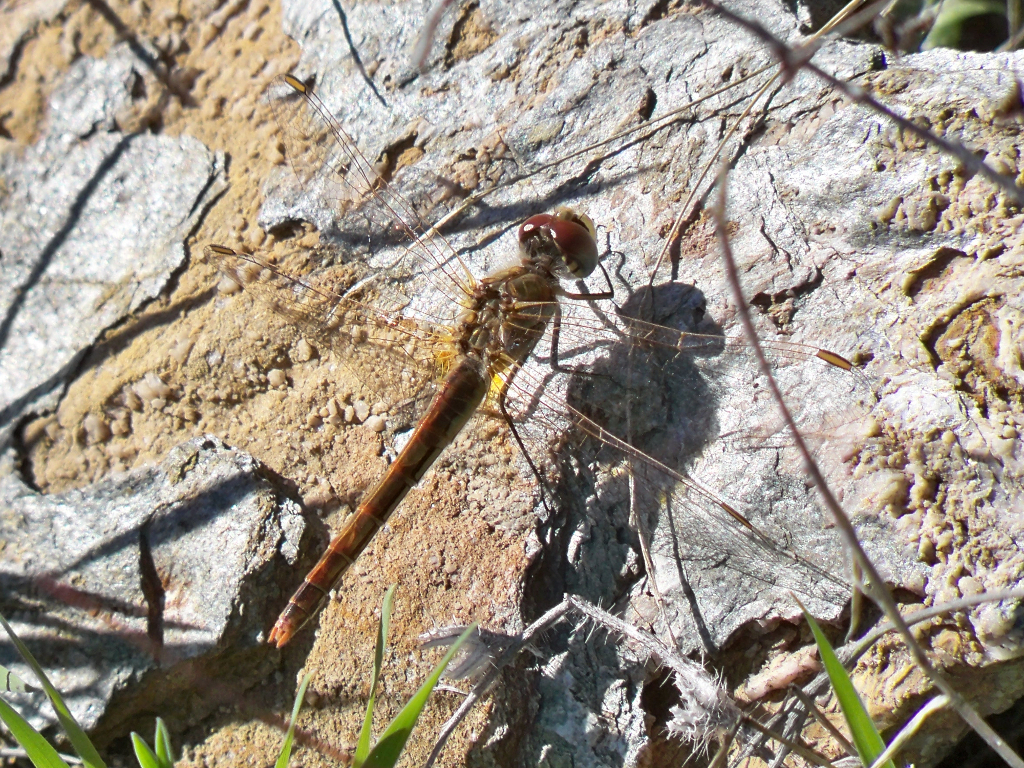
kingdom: Animalia
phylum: Arthropoda
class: Insecta
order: Odonata
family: Libellulidae
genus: Sympetrum
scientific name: Sympetrum fonscolombii
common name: Red-veined darter
